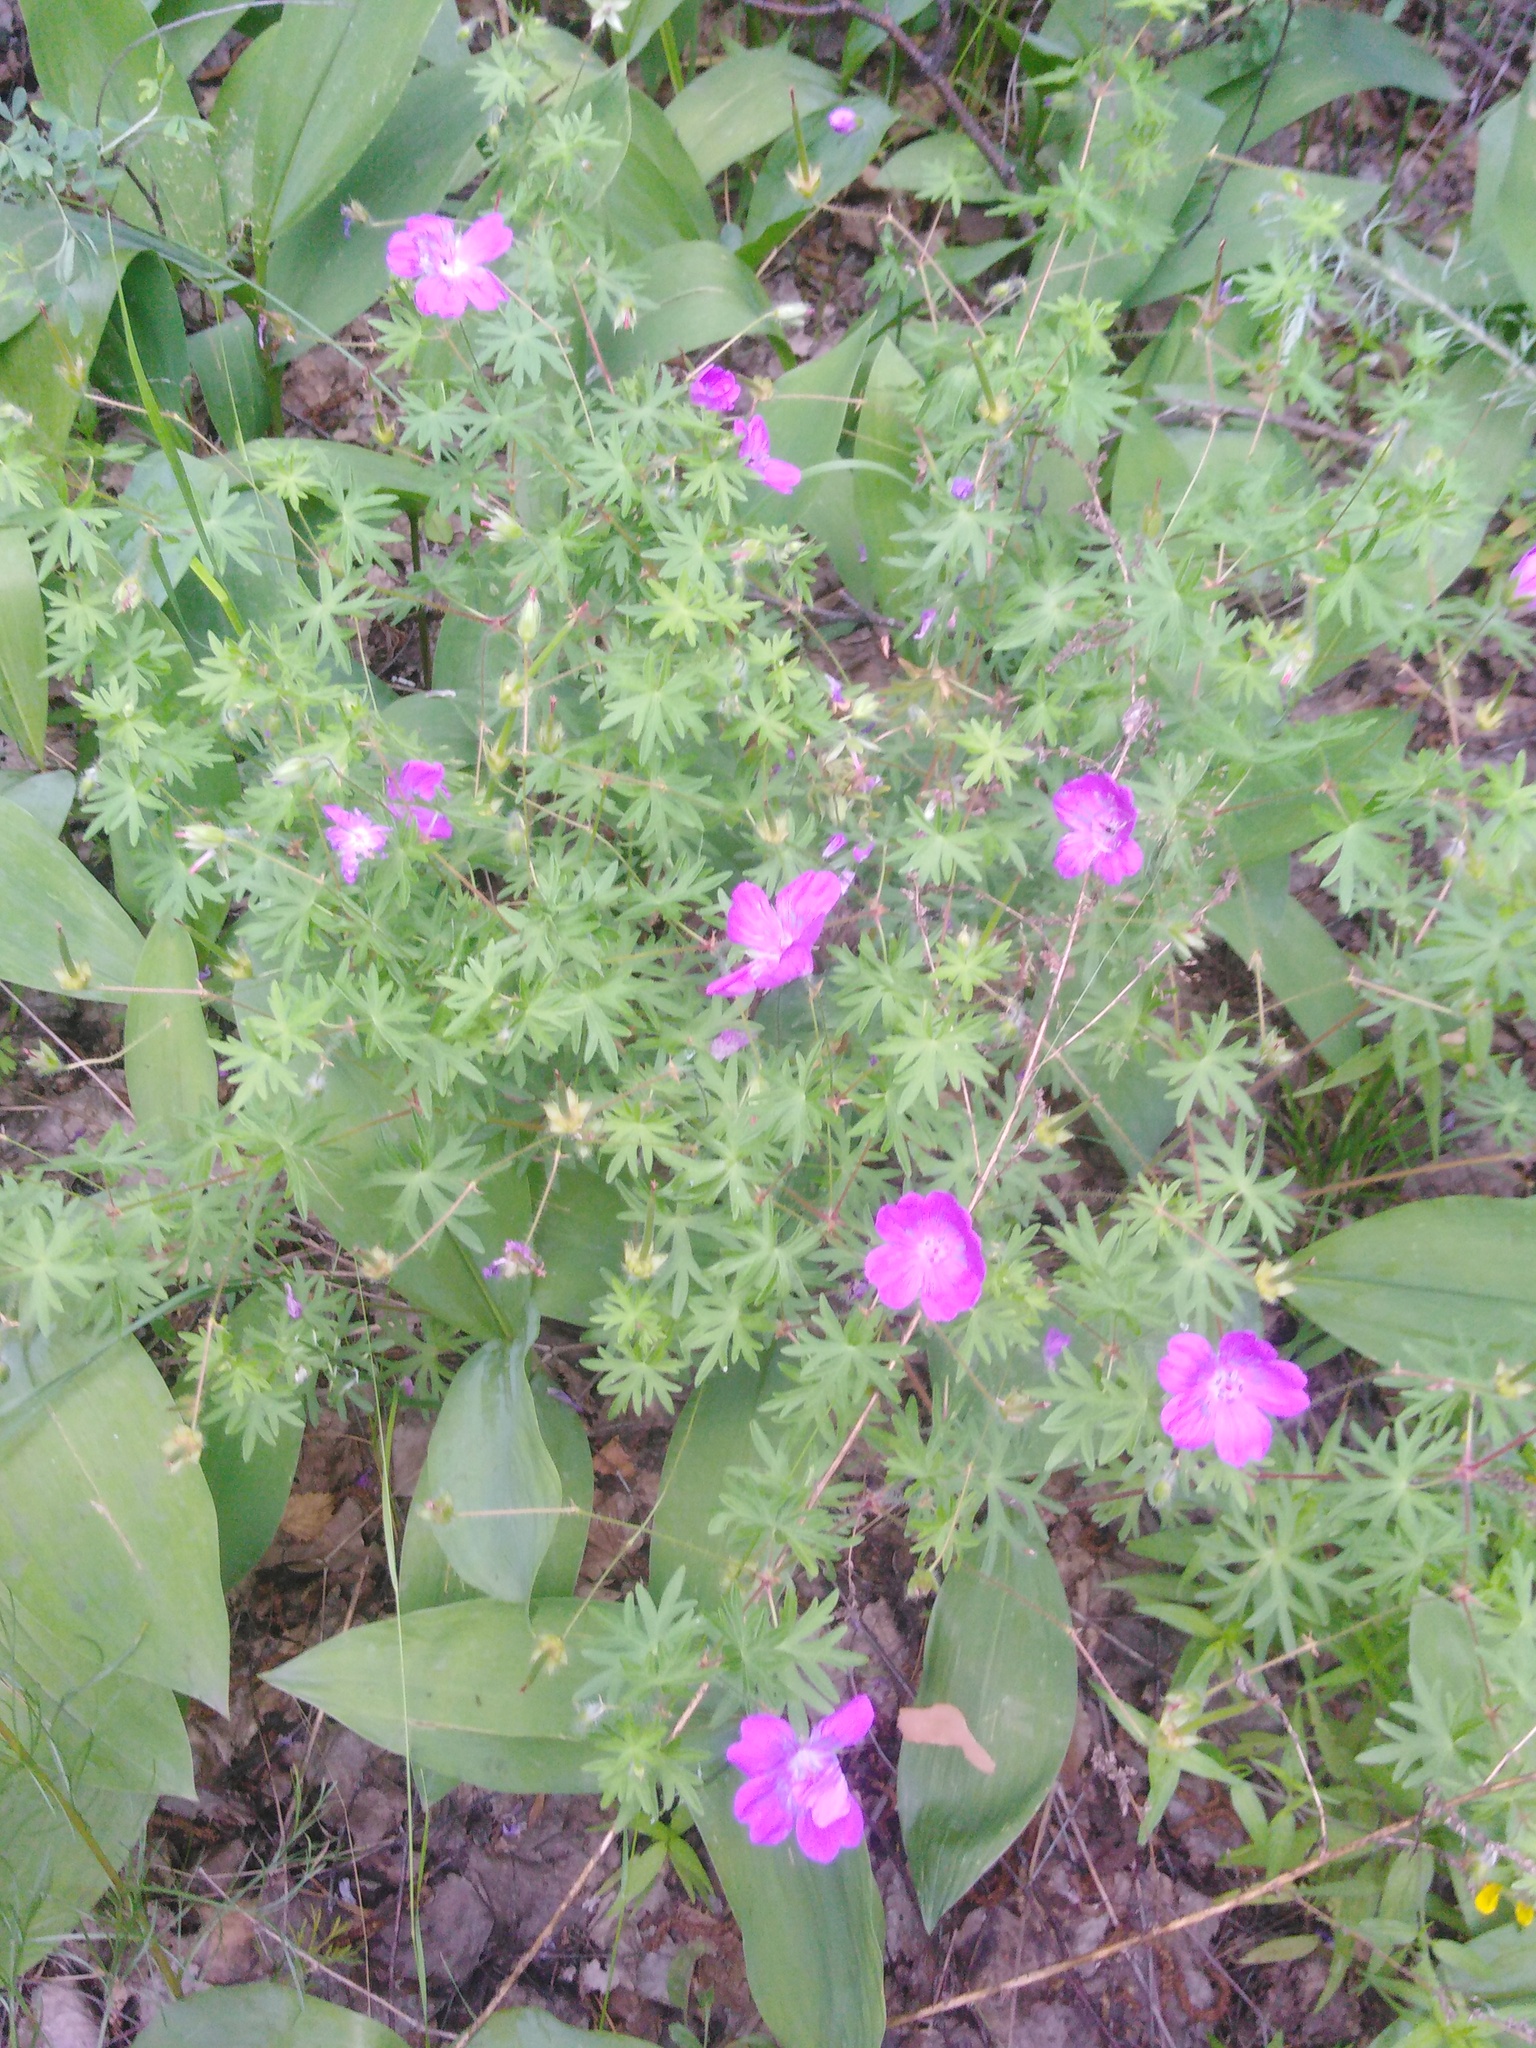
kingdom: Plantae
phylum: Tracheophyta
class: Magnoliopsida
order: Geraniales
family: Geraniaceae
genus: Geranium
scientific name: Geranium sanguineum
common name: Bloody crane's-bill
